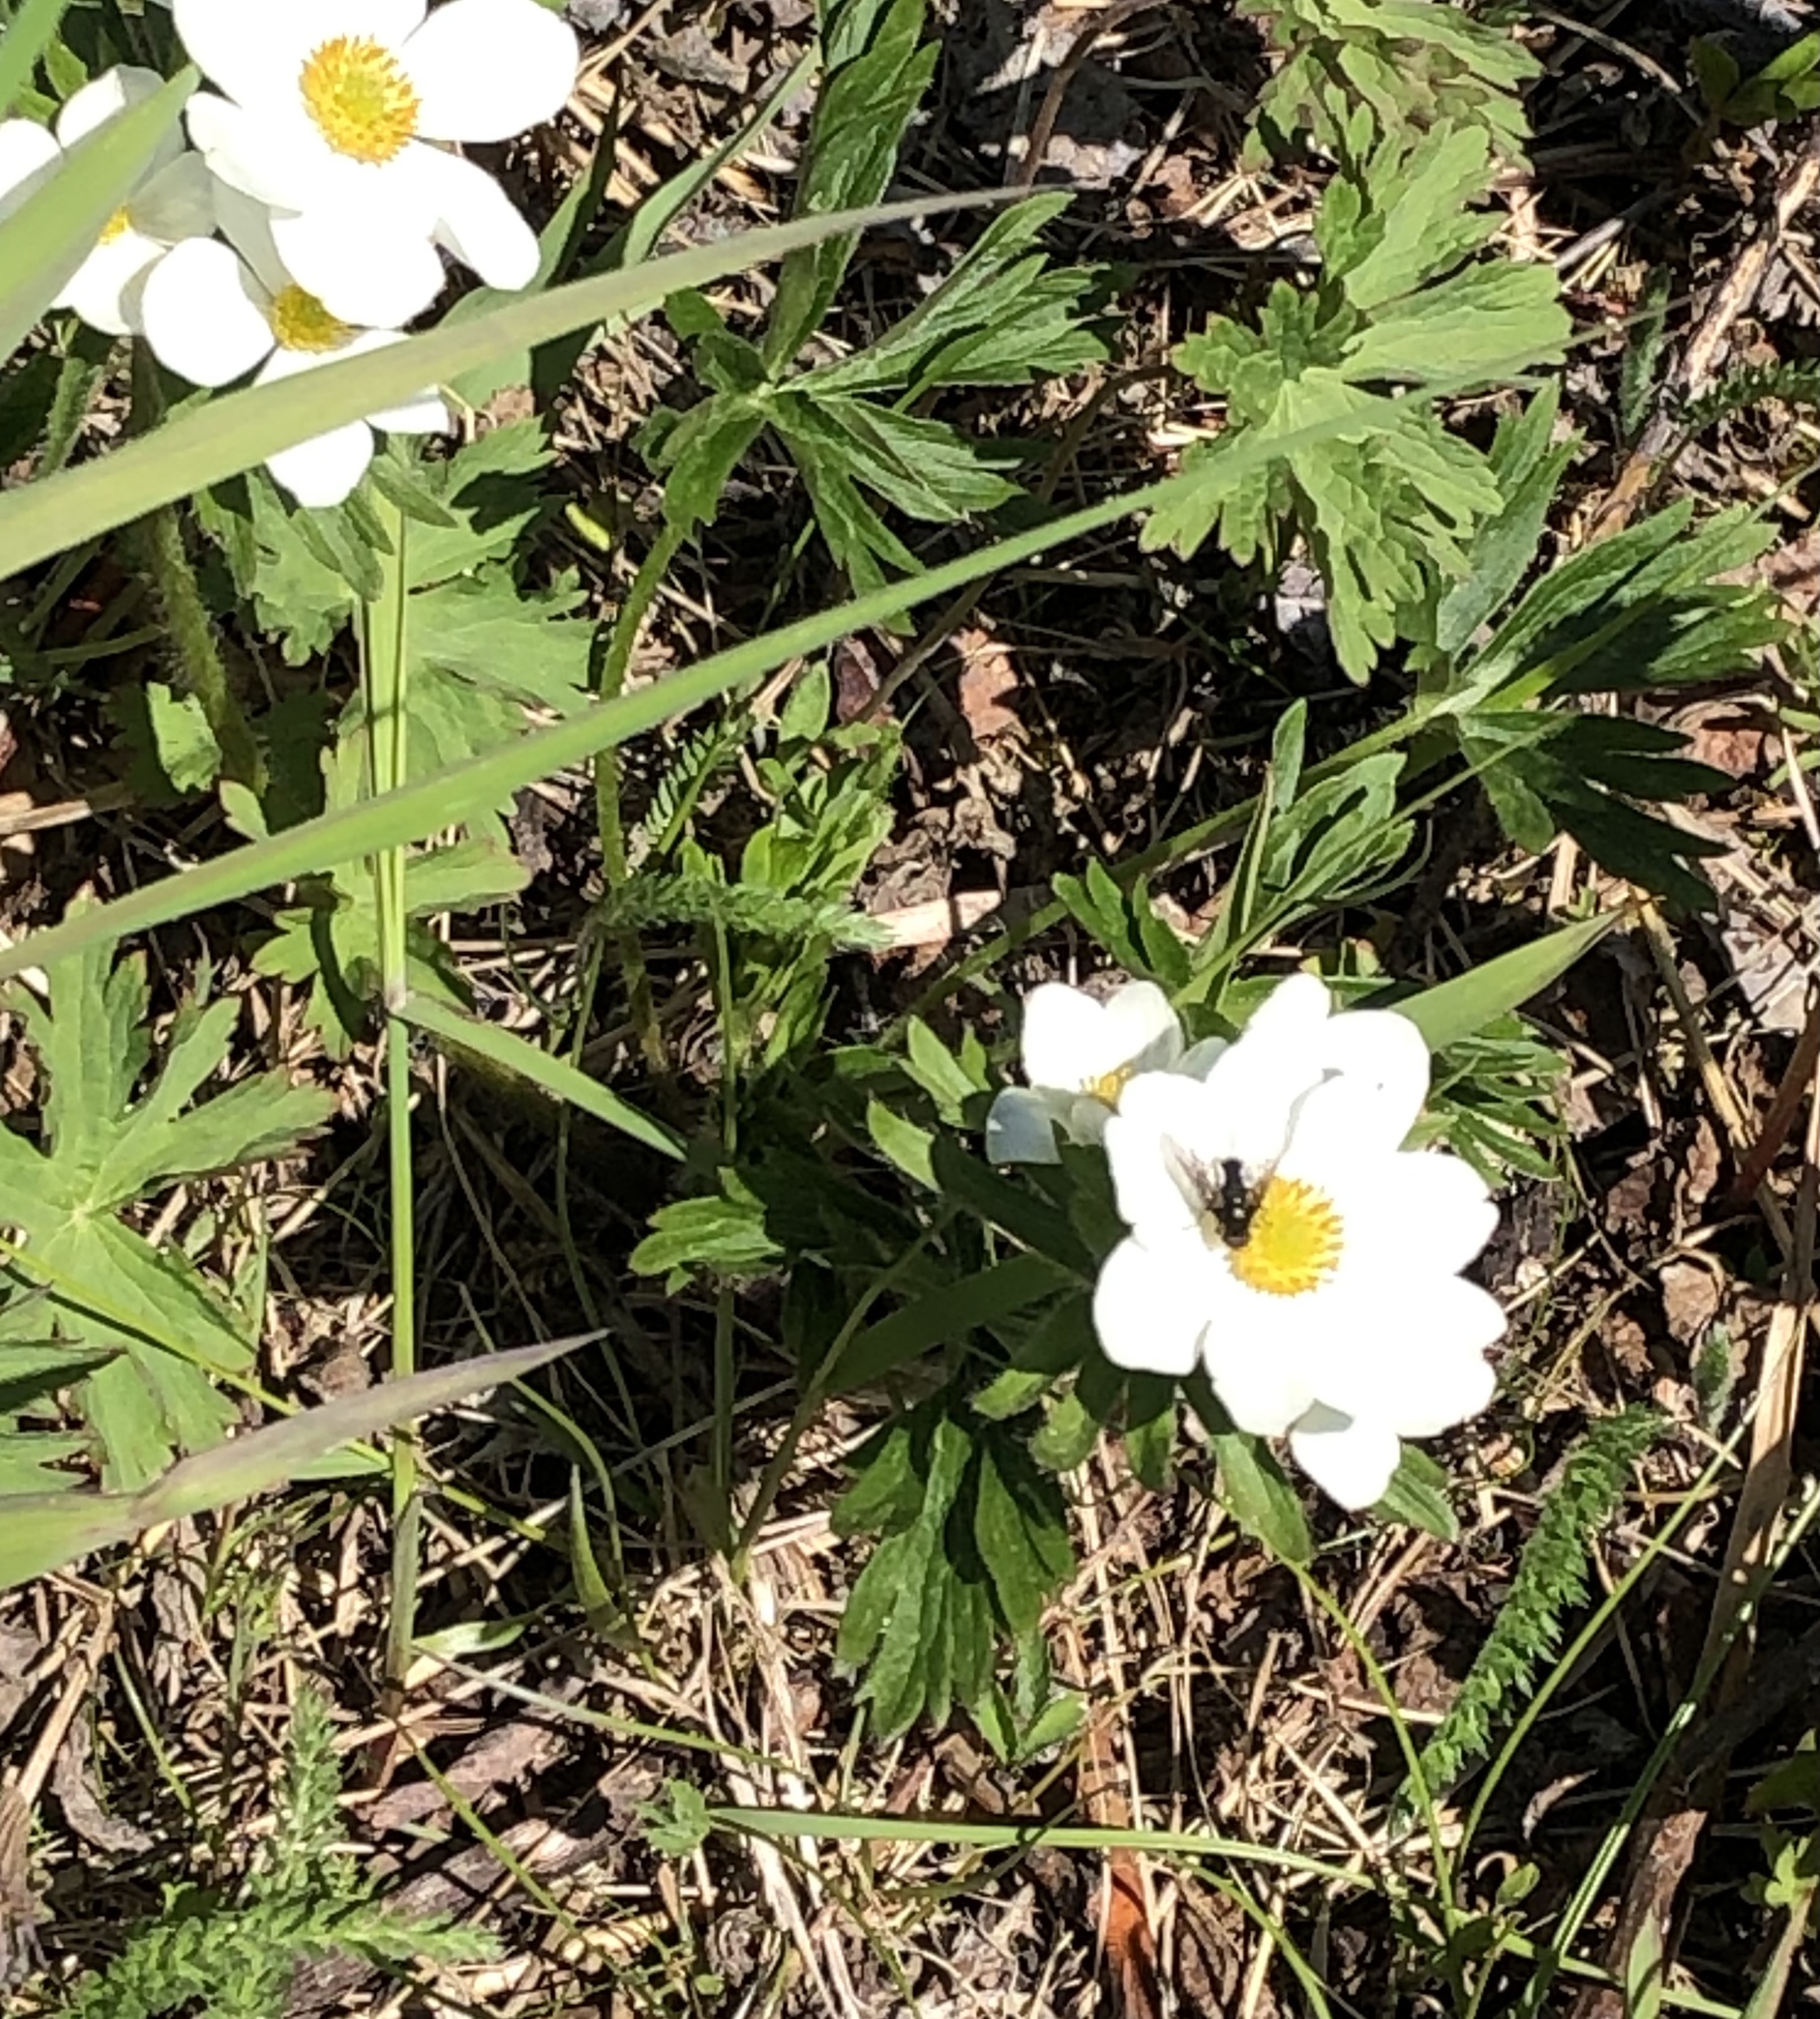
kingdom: Plantae
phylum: Tracheophyta
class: Magnoliopsida
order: Ranunculales
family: Ranunculaceae
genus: Anemonastrum
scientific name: Anemonastrum narcissiflorum
